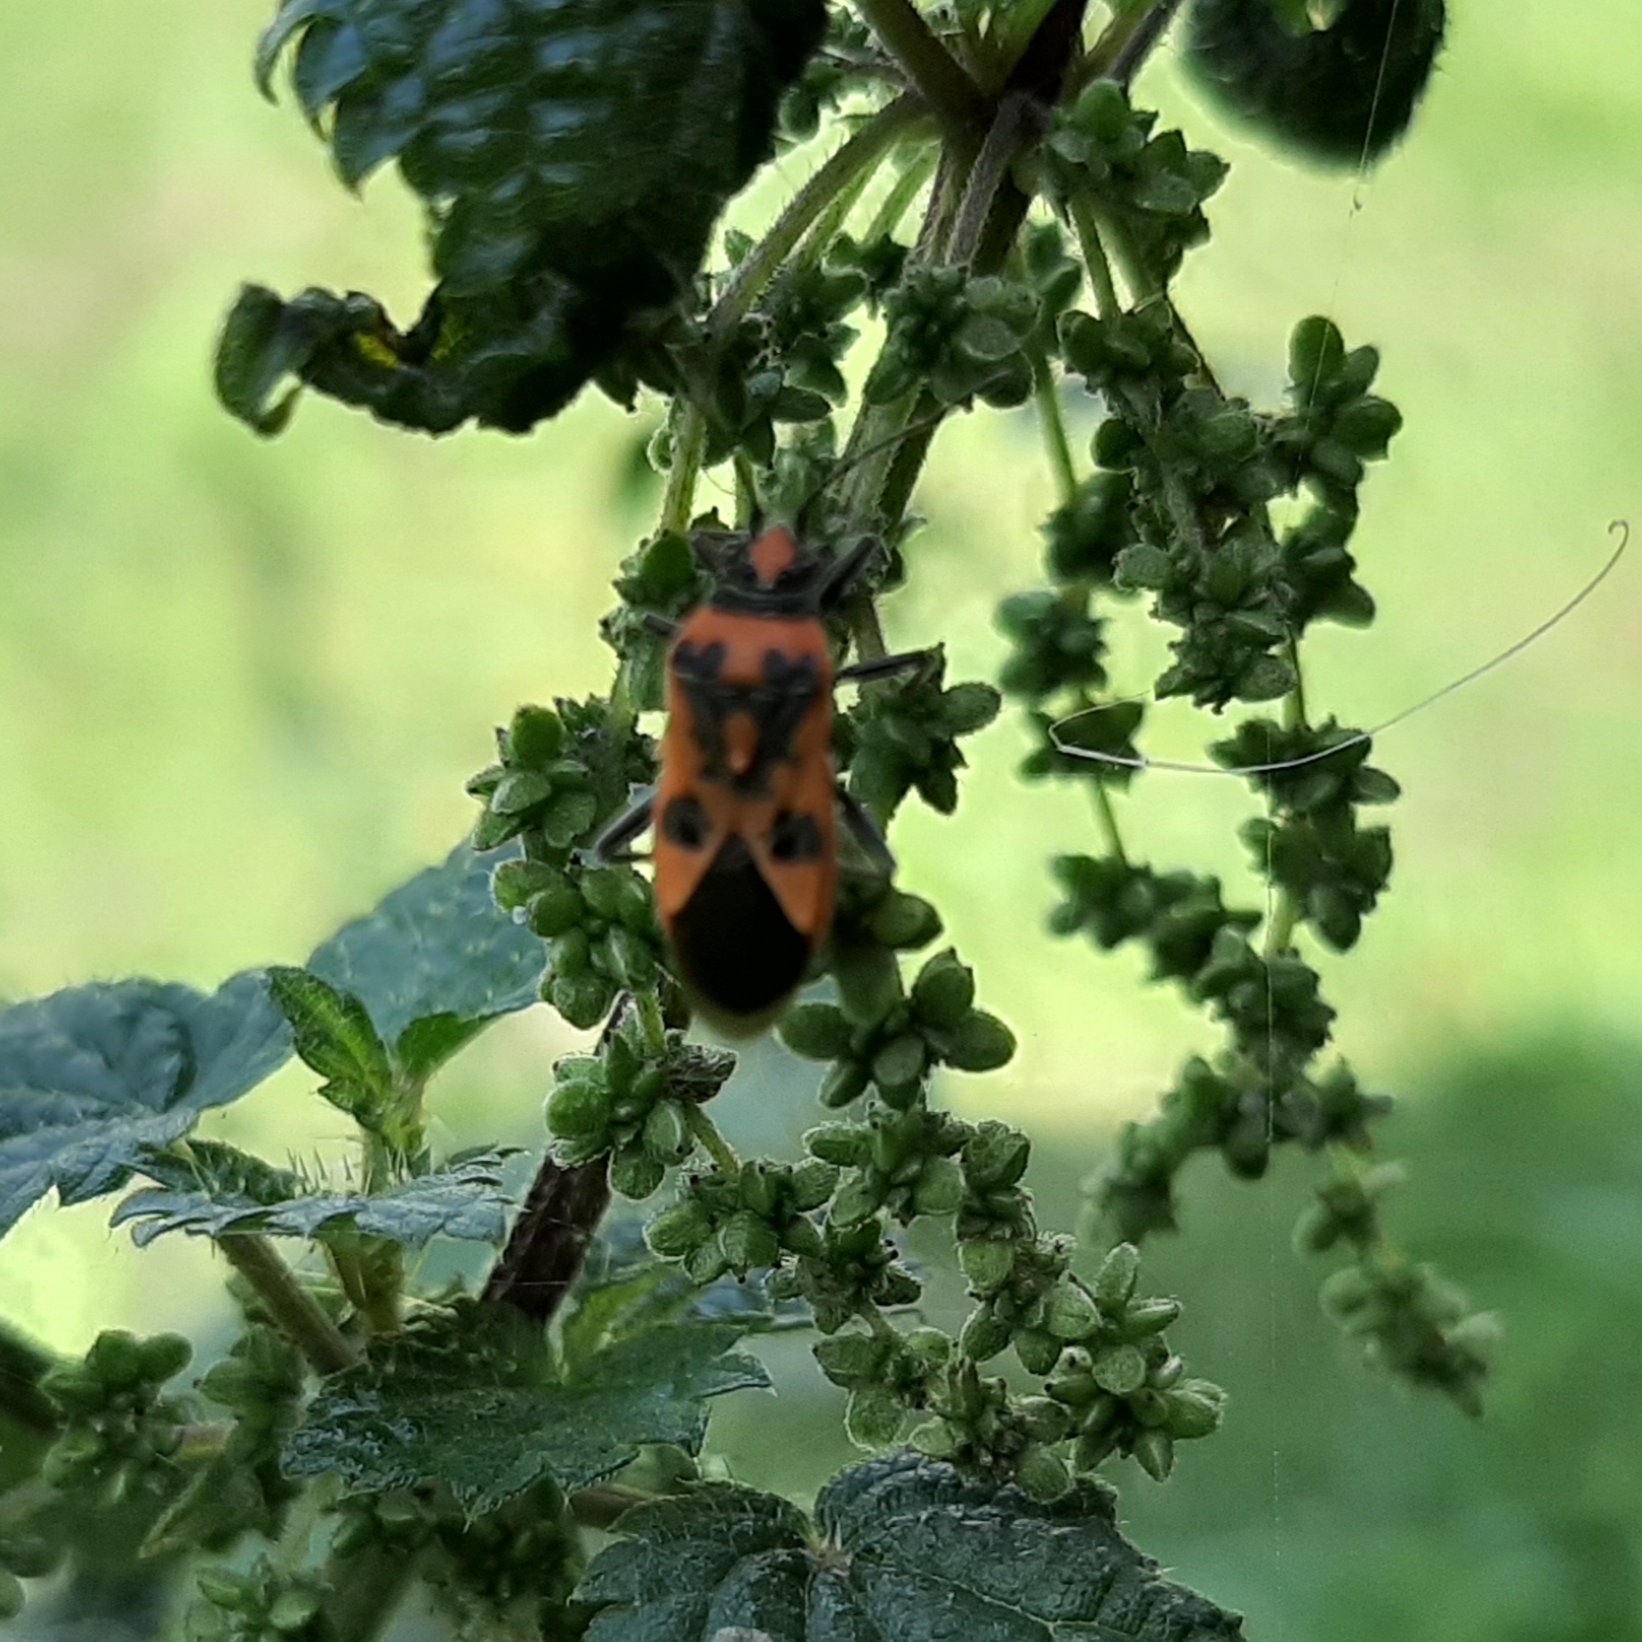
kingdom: Animalia
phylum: Arthropoda
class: Insecta
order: Hemiptera
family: Rhopalidae
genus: Corizus
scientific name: Corizus hyoscyami
